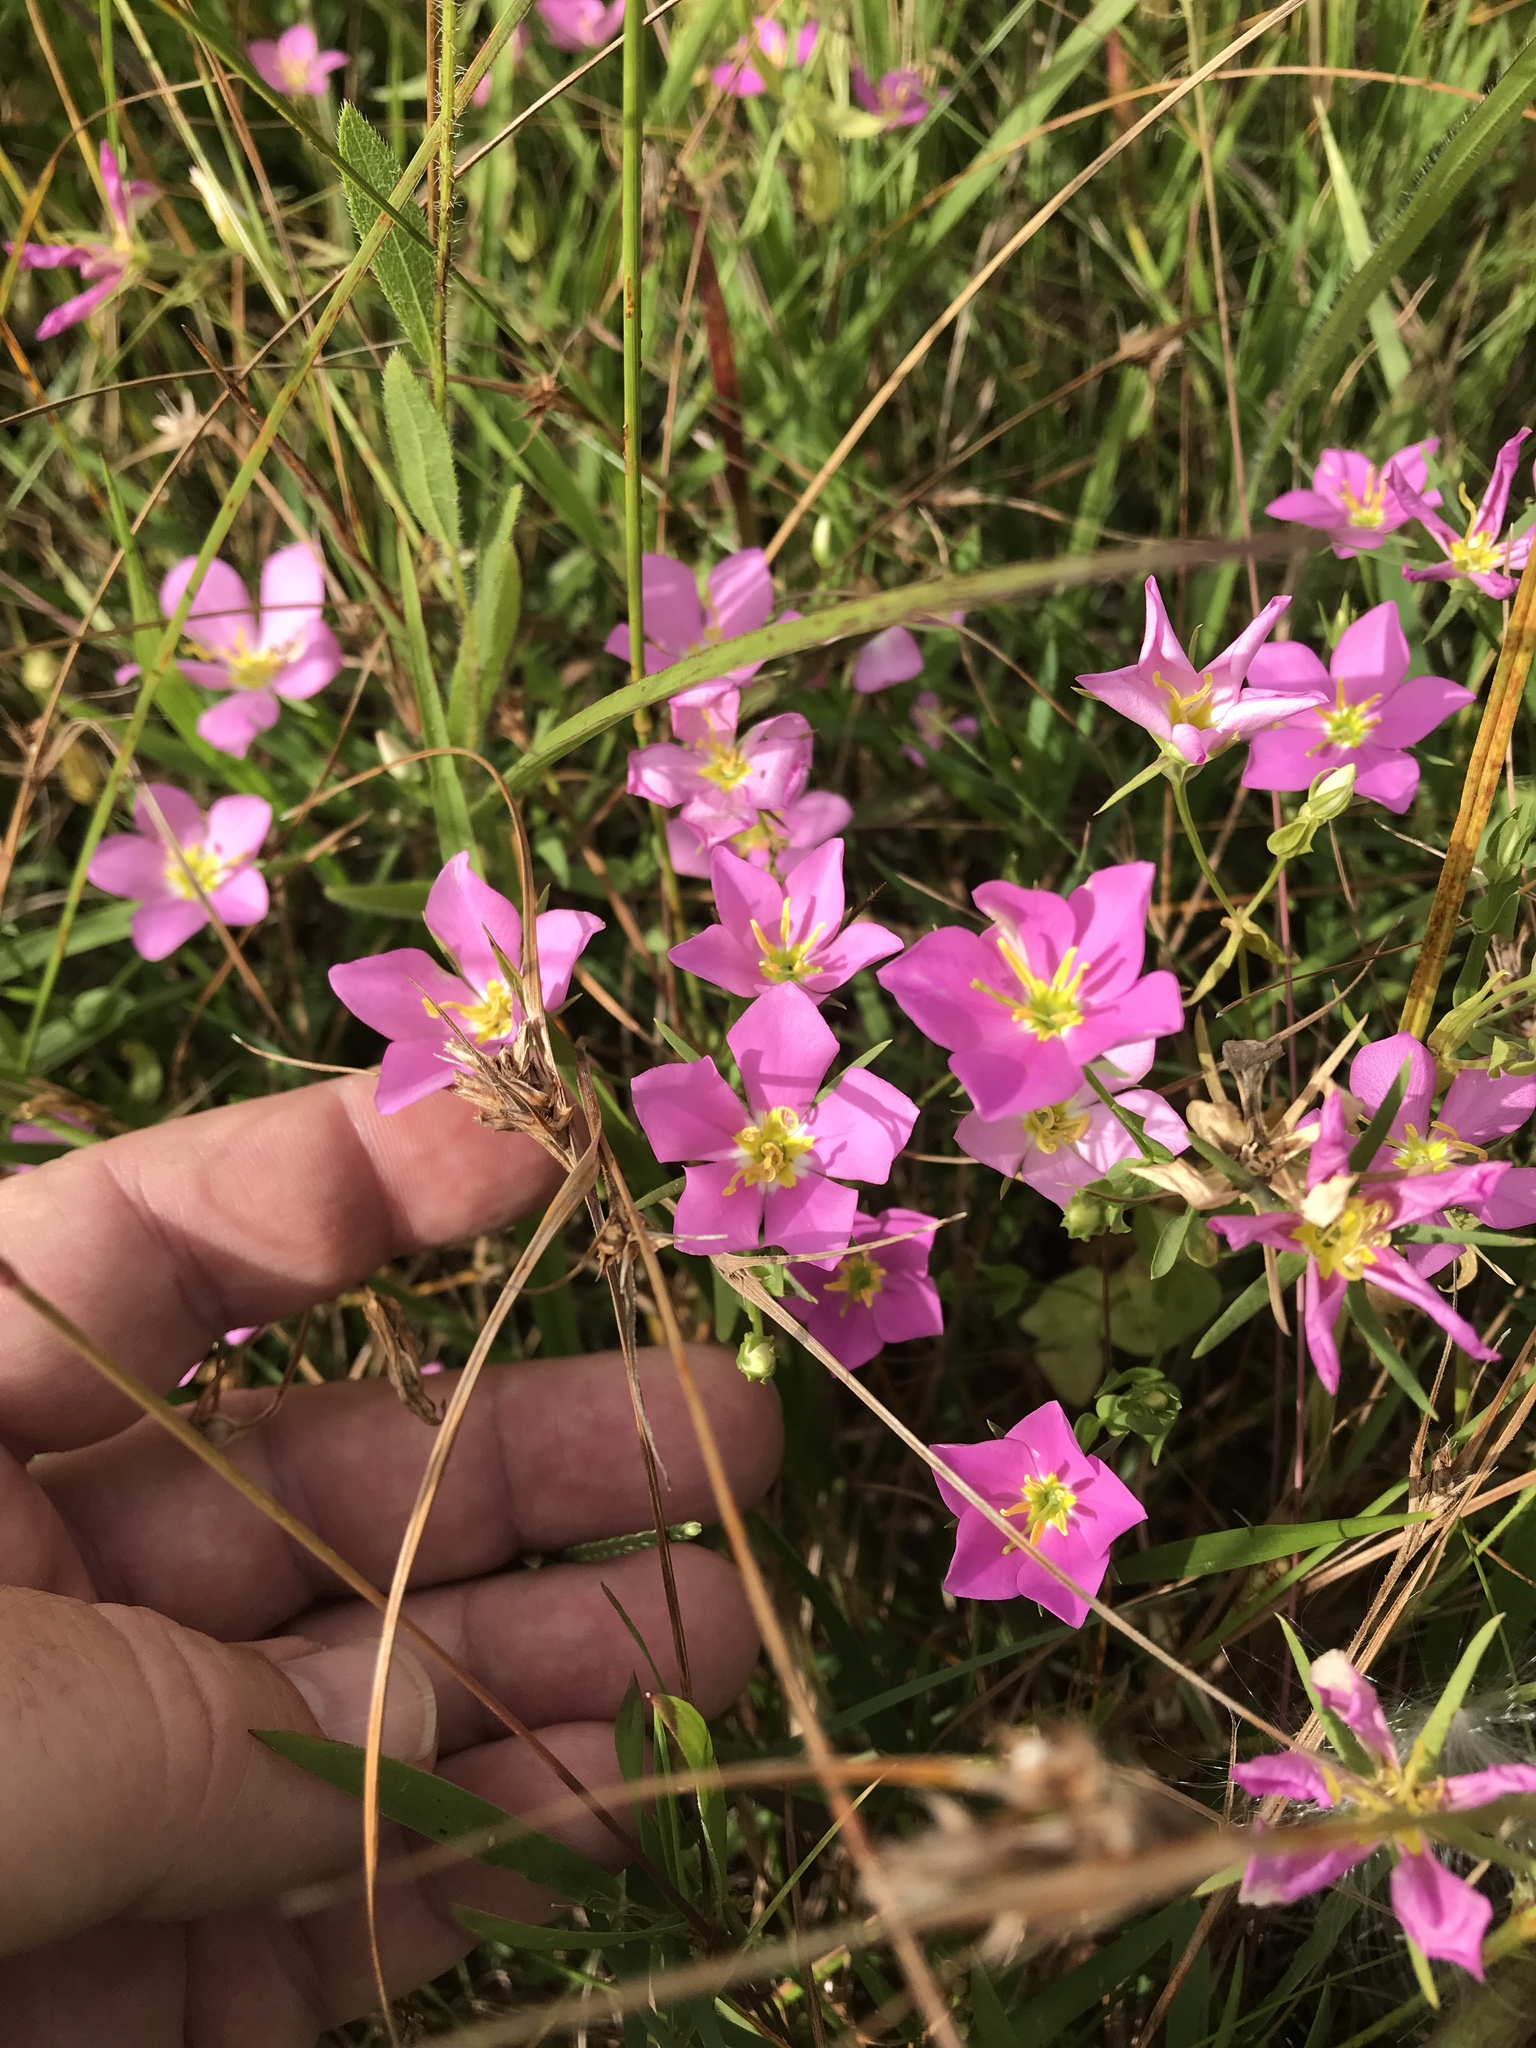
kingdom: Plantae
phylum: Tracheophyta
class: Magnoliopsida
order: Gentianales
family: Gentianaceae
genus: Sabatia
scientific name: Sabatia campestris
